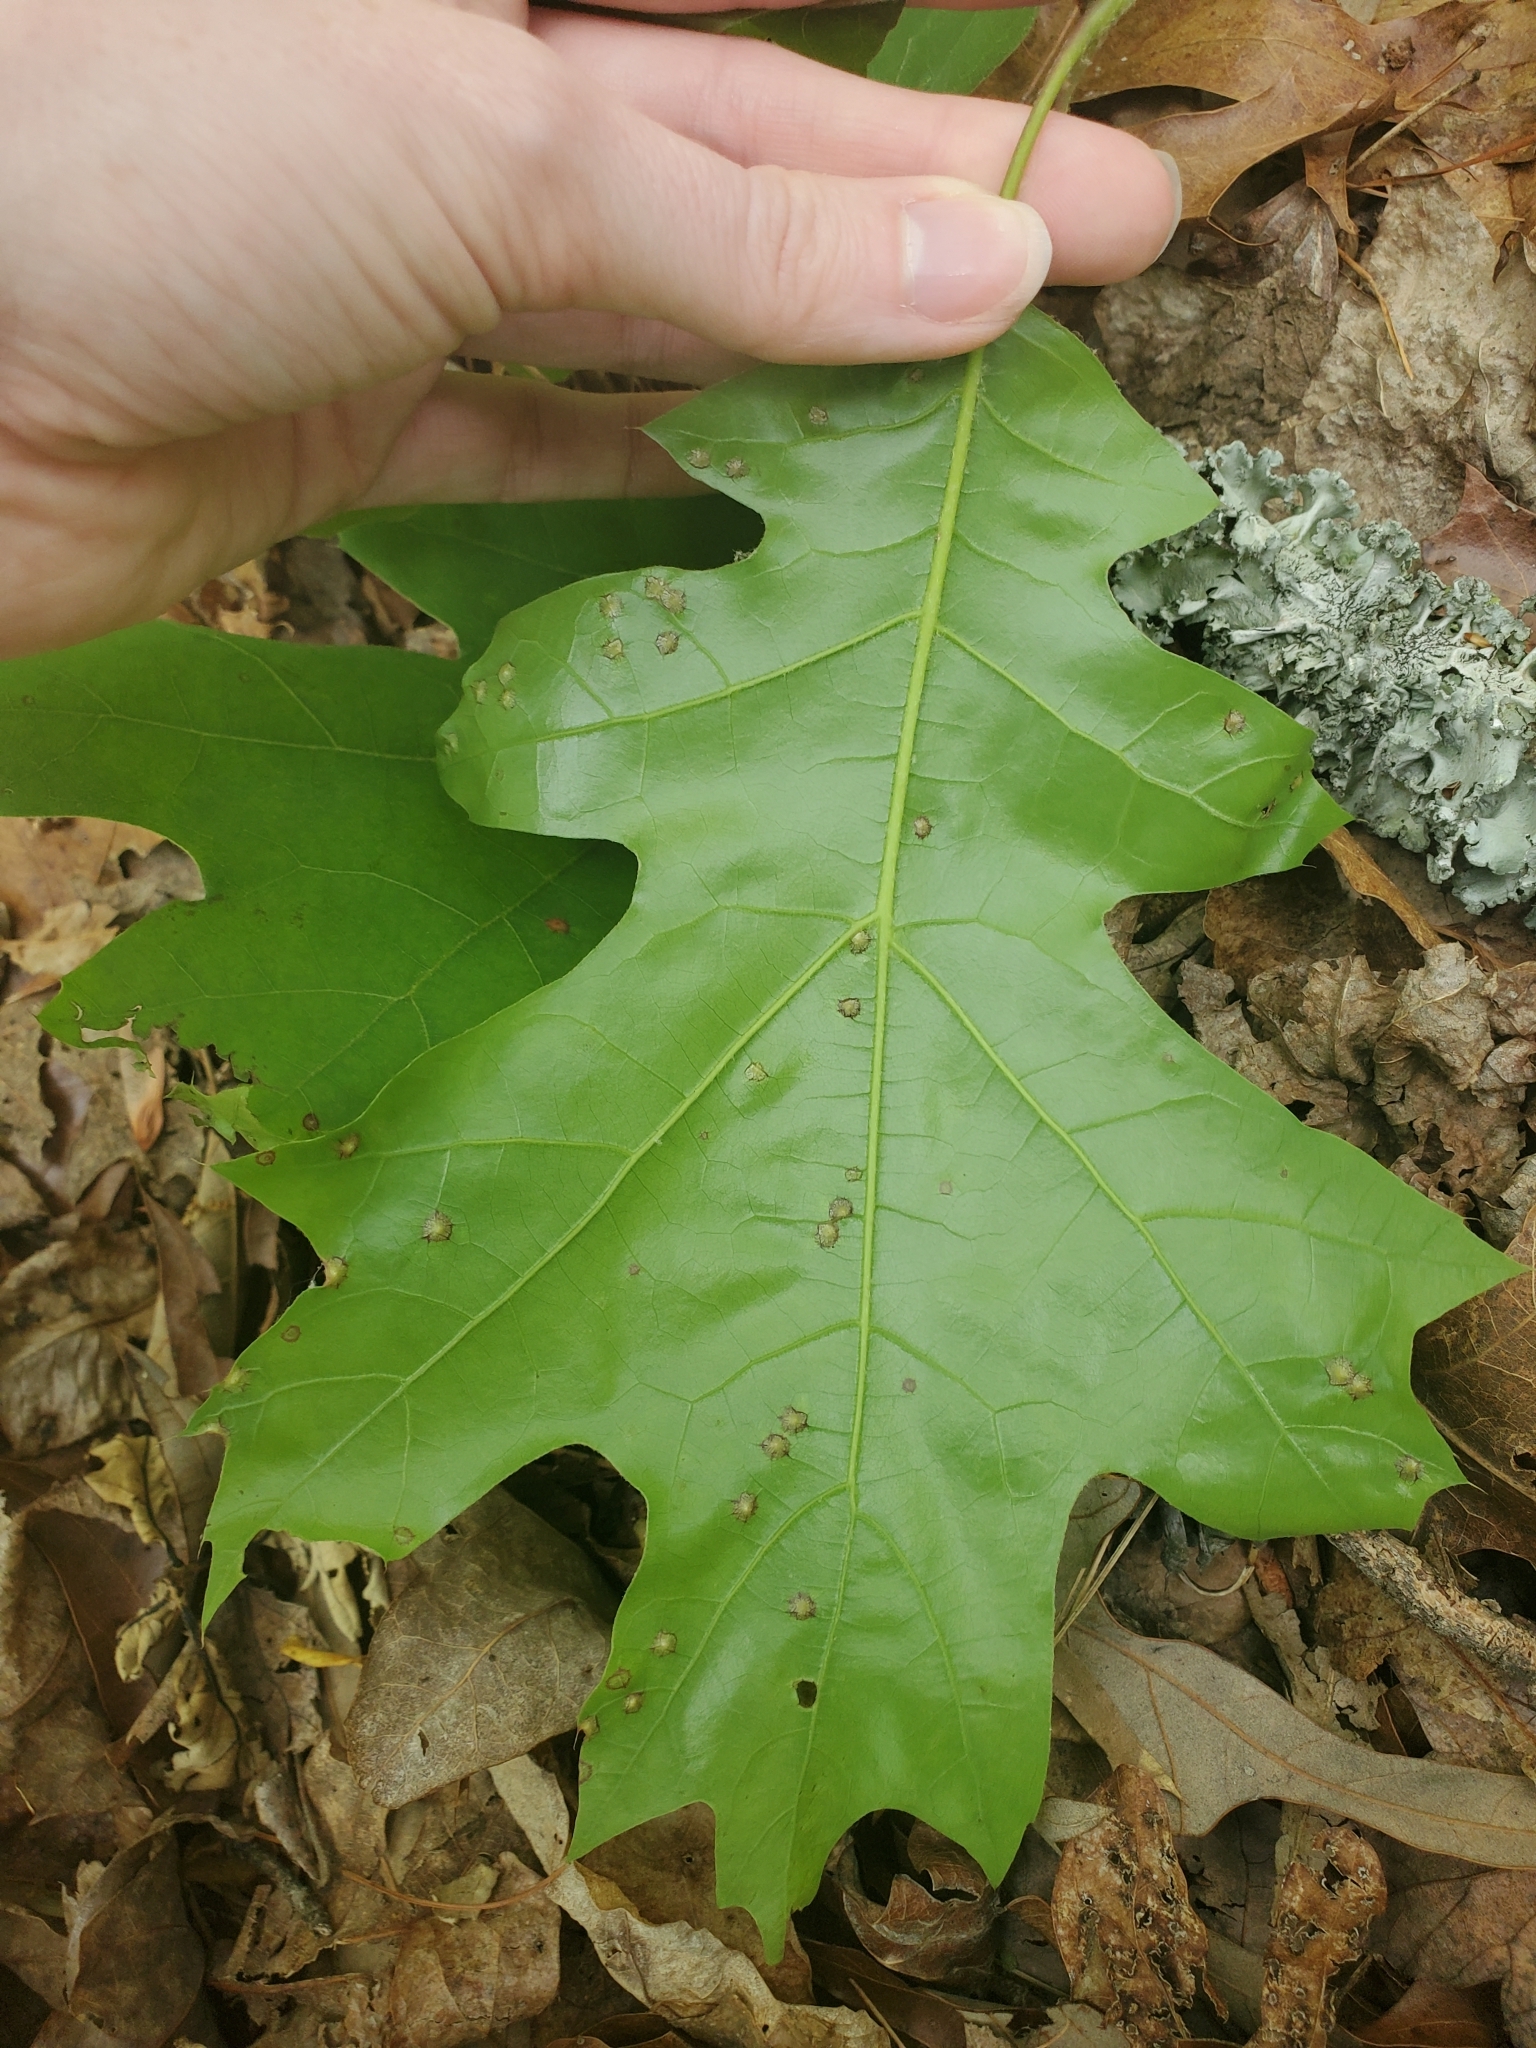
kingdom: Animalia
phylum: Arthropoda
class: Insecta
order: Diptera
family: Cecidomyiidae
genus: Polystepha
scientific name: Polystepha pilulae
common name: Oak leaf gall midge
